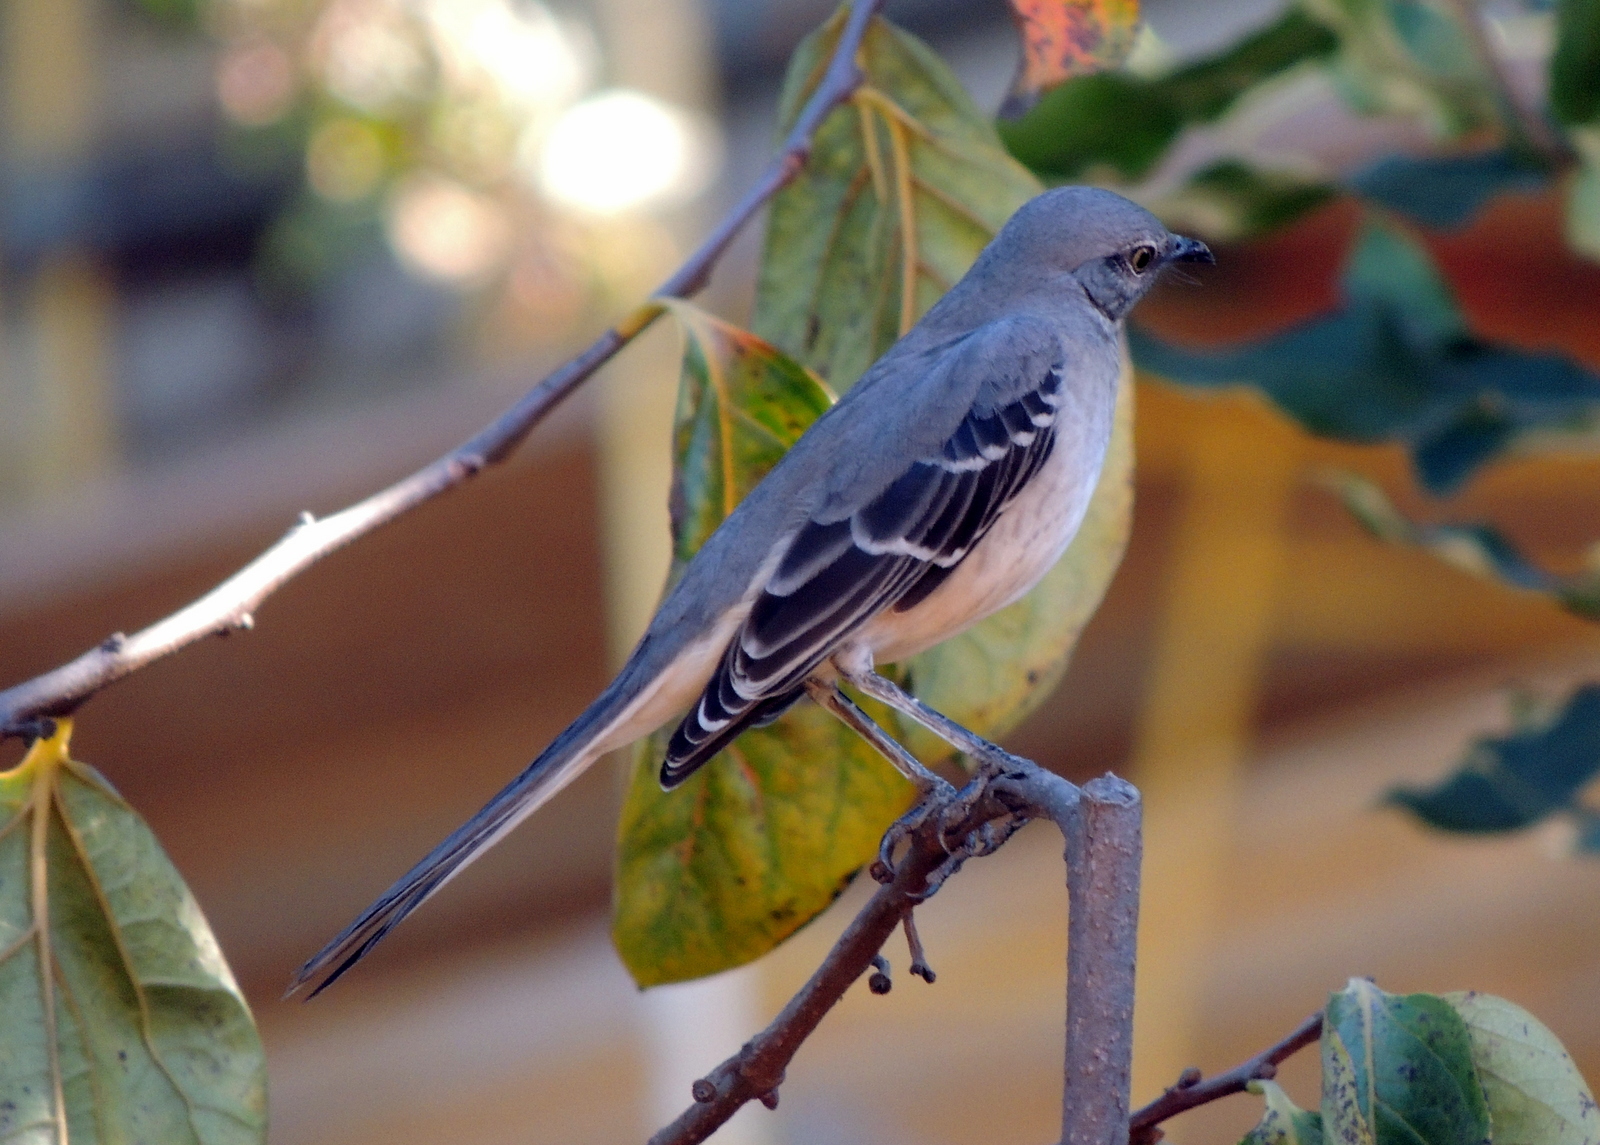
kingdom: Animalia
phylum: Chordata
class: Aves
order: Passeriformes
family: Mimidae
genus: Mimus
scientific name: Mimus polyglottos
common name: Northern mockingbird
